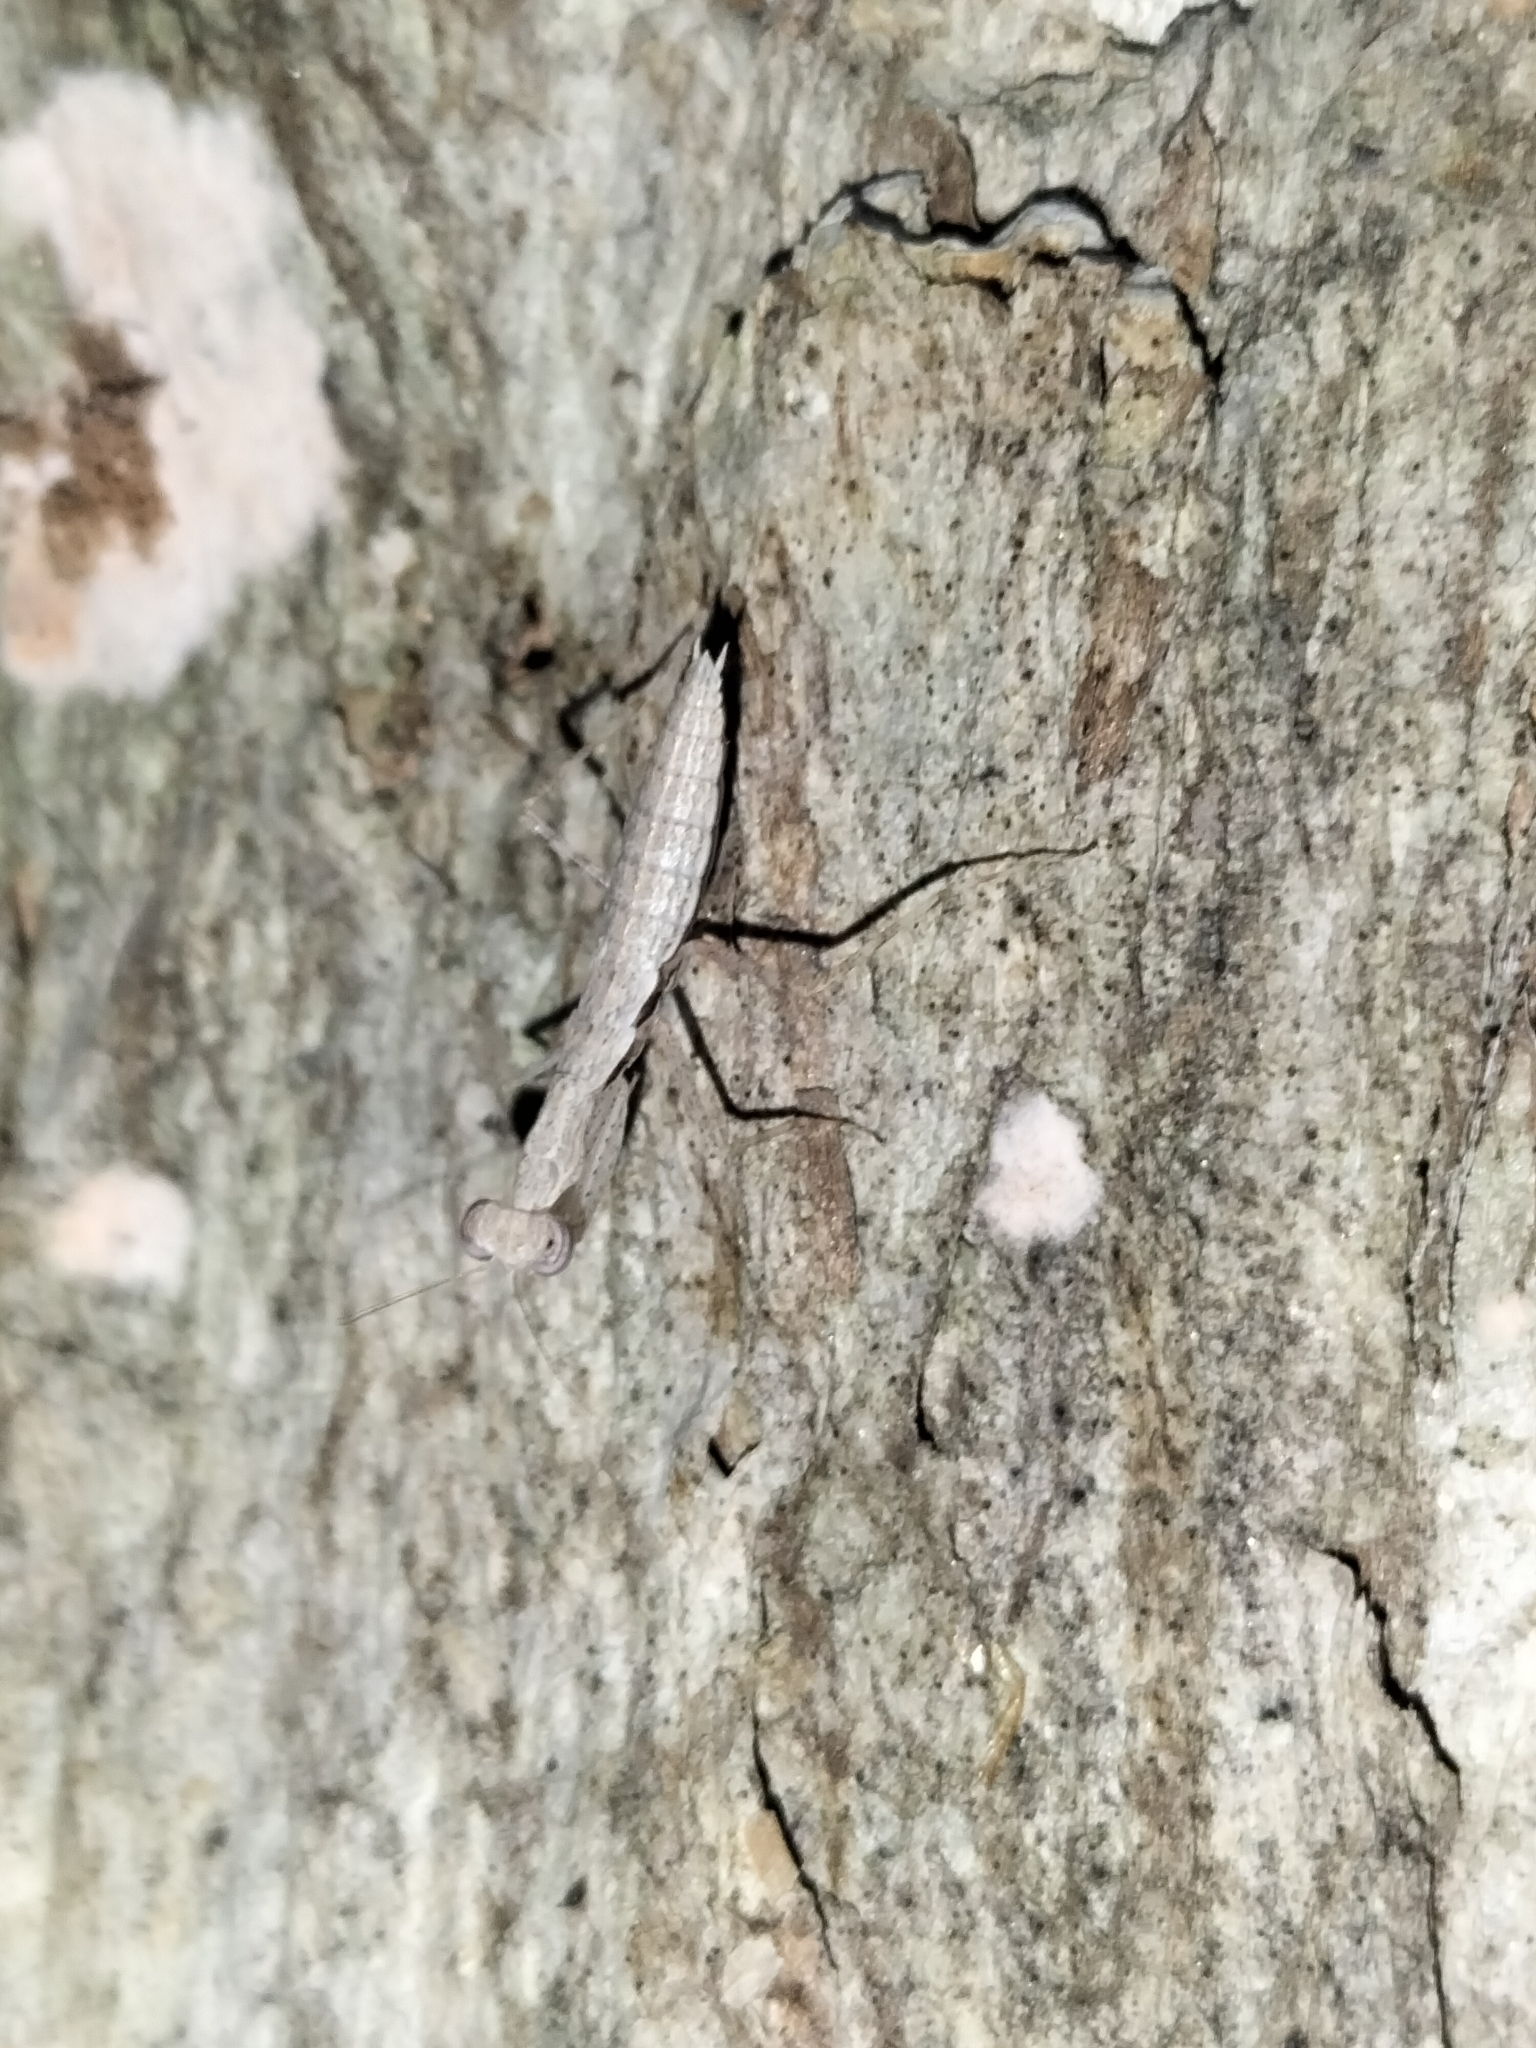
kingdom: Animalia
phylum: Arthropoda
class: Insecta
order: Mantodea
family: Nanomantidae
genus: Ima
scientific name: Ima fusca
